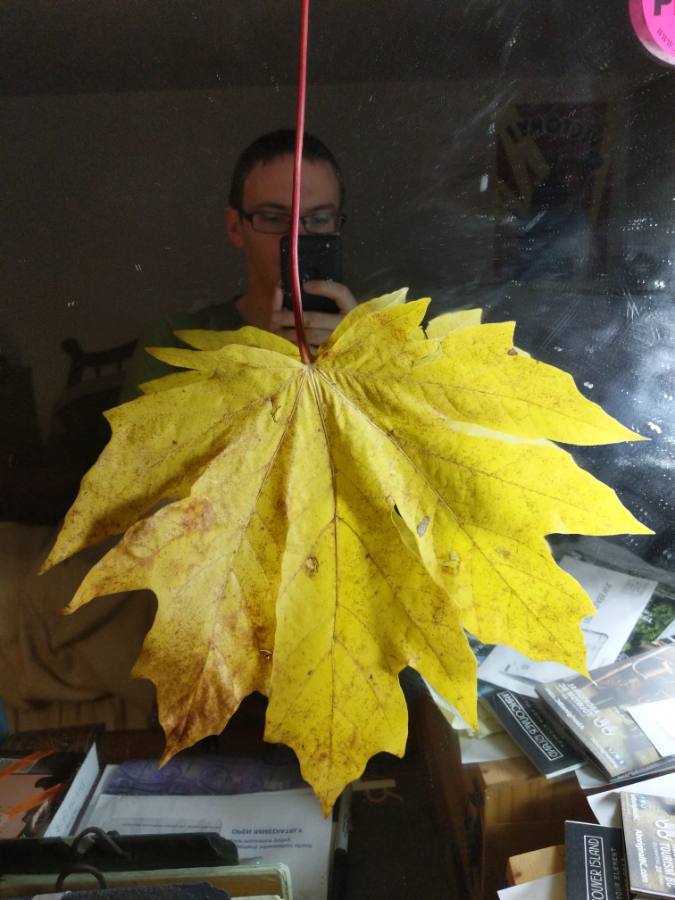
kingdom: Plantae
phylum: Tracheophyta
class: Magnoliopsida
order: Sapindales
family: Sapindaceae
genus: Acer
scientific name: Acer macrophyllum
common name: Oregon maple
